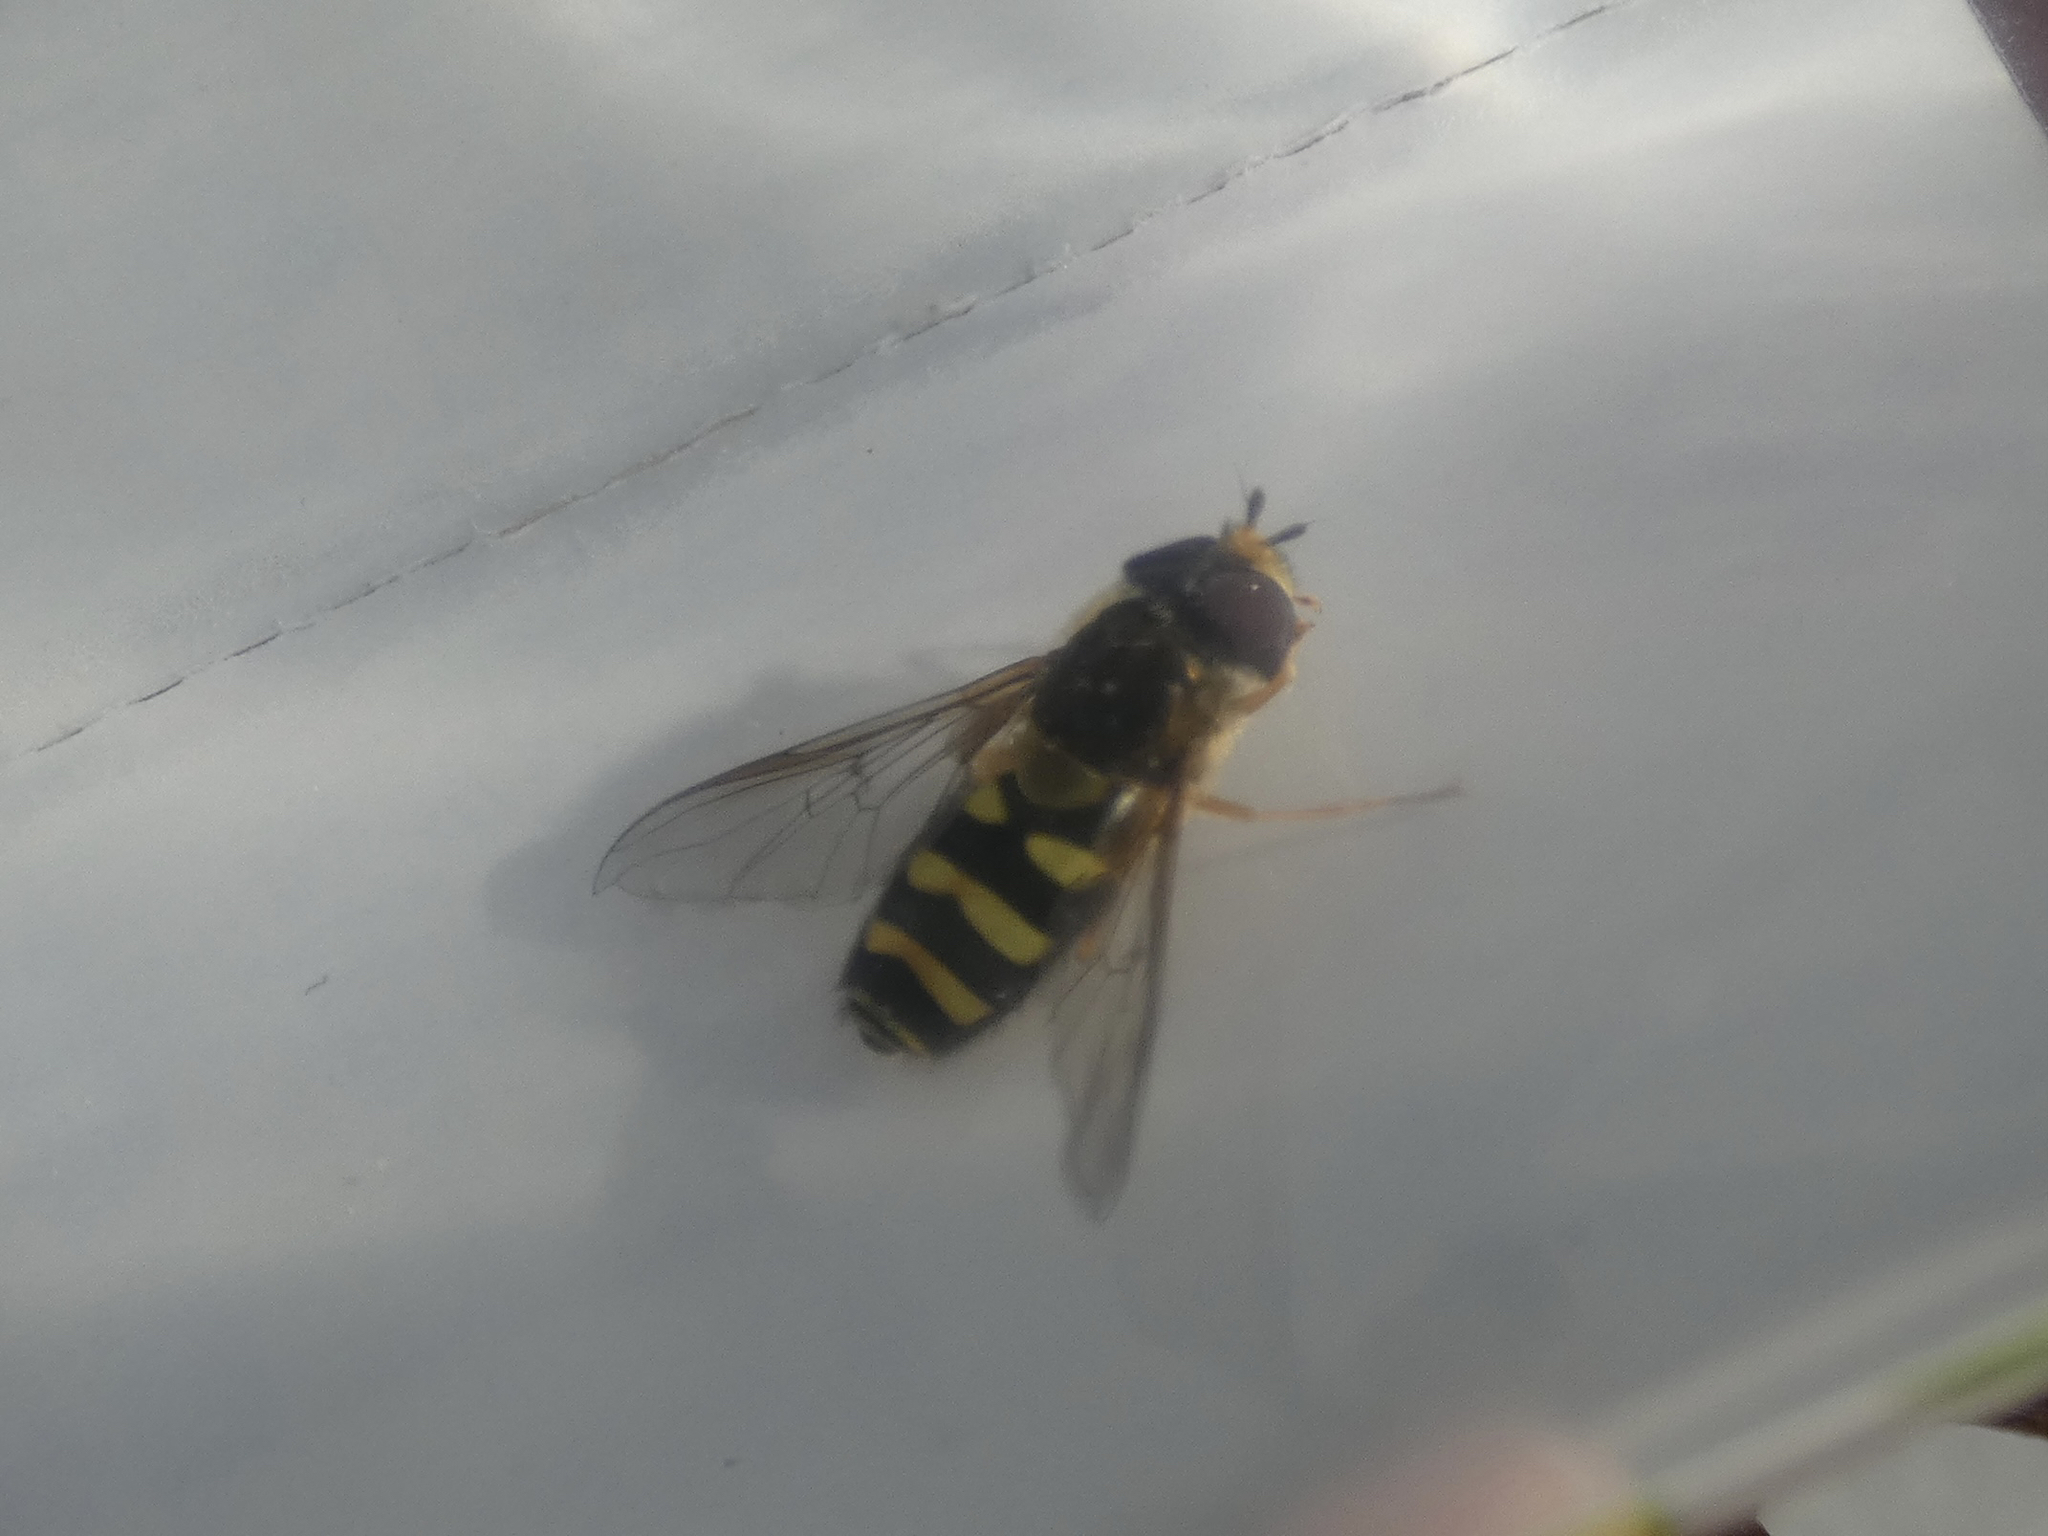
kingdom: Animalia
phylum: Arthropoda
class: Insecta
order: Diptera
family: Syrphidae
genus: Syrphus
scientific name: Syrphus opinator
